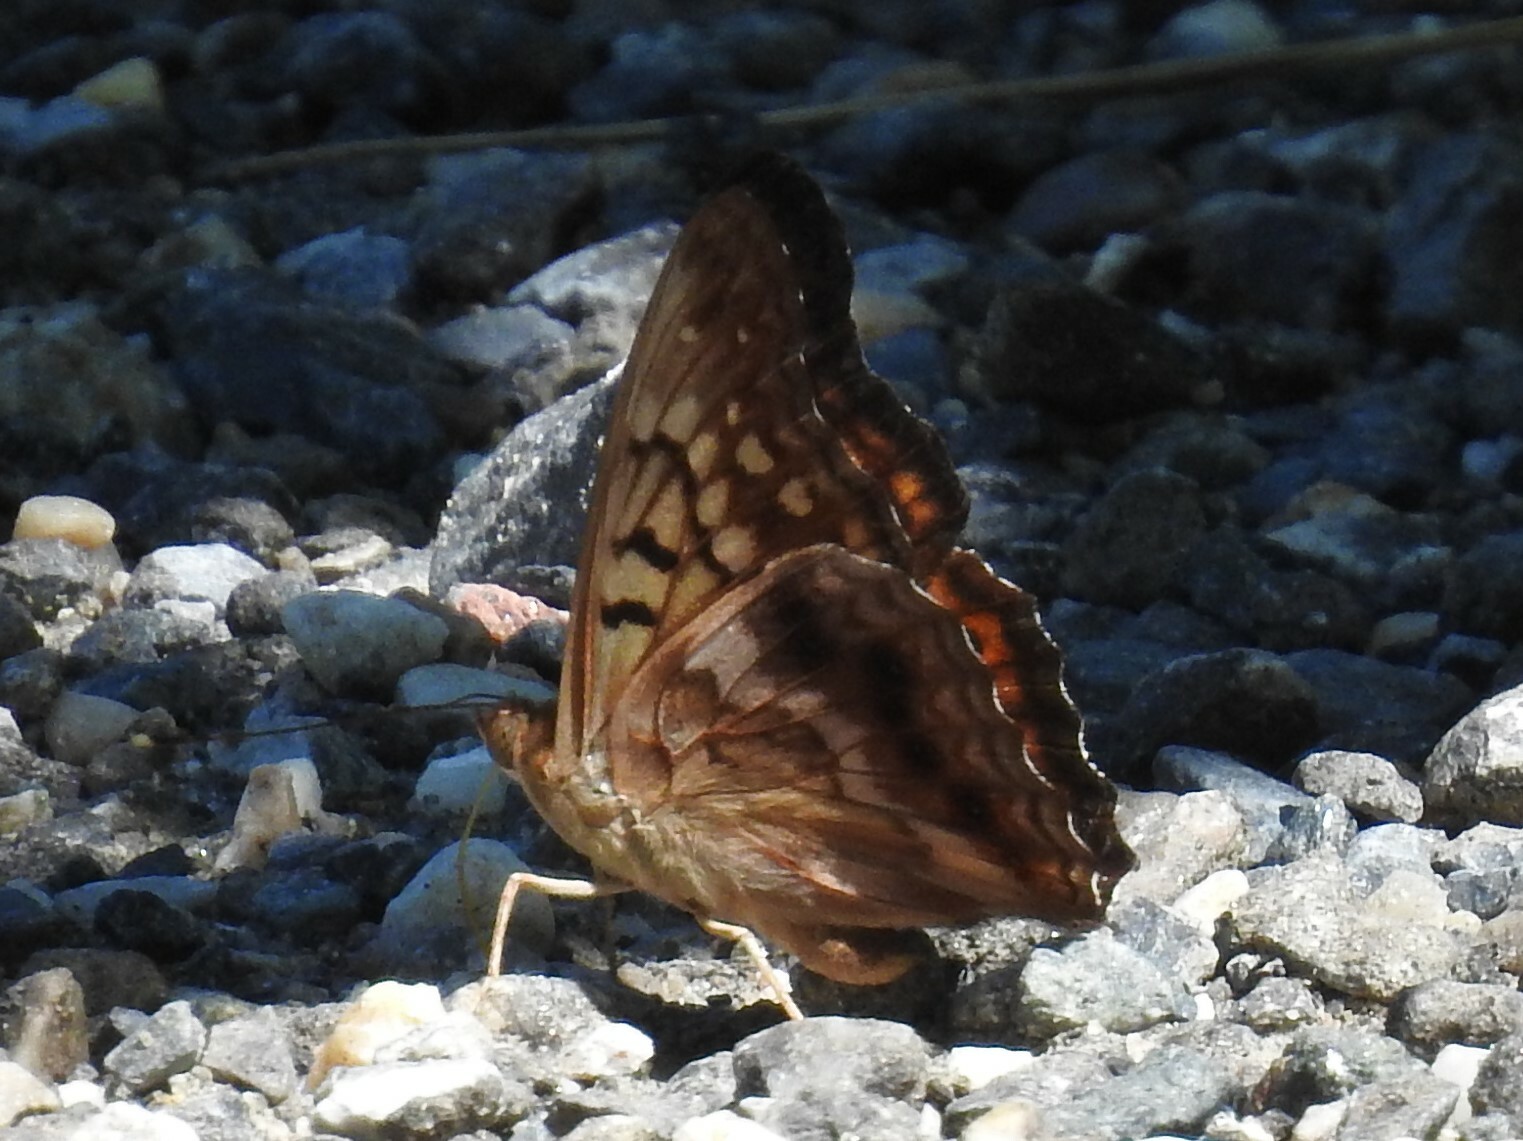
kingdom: Animalia
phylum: Arthropoda
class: Insecta
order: Lepidoptera
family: Nymphalidae
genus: Asterocampa
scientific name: Asterocampa clyton
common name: Tawny emperor
